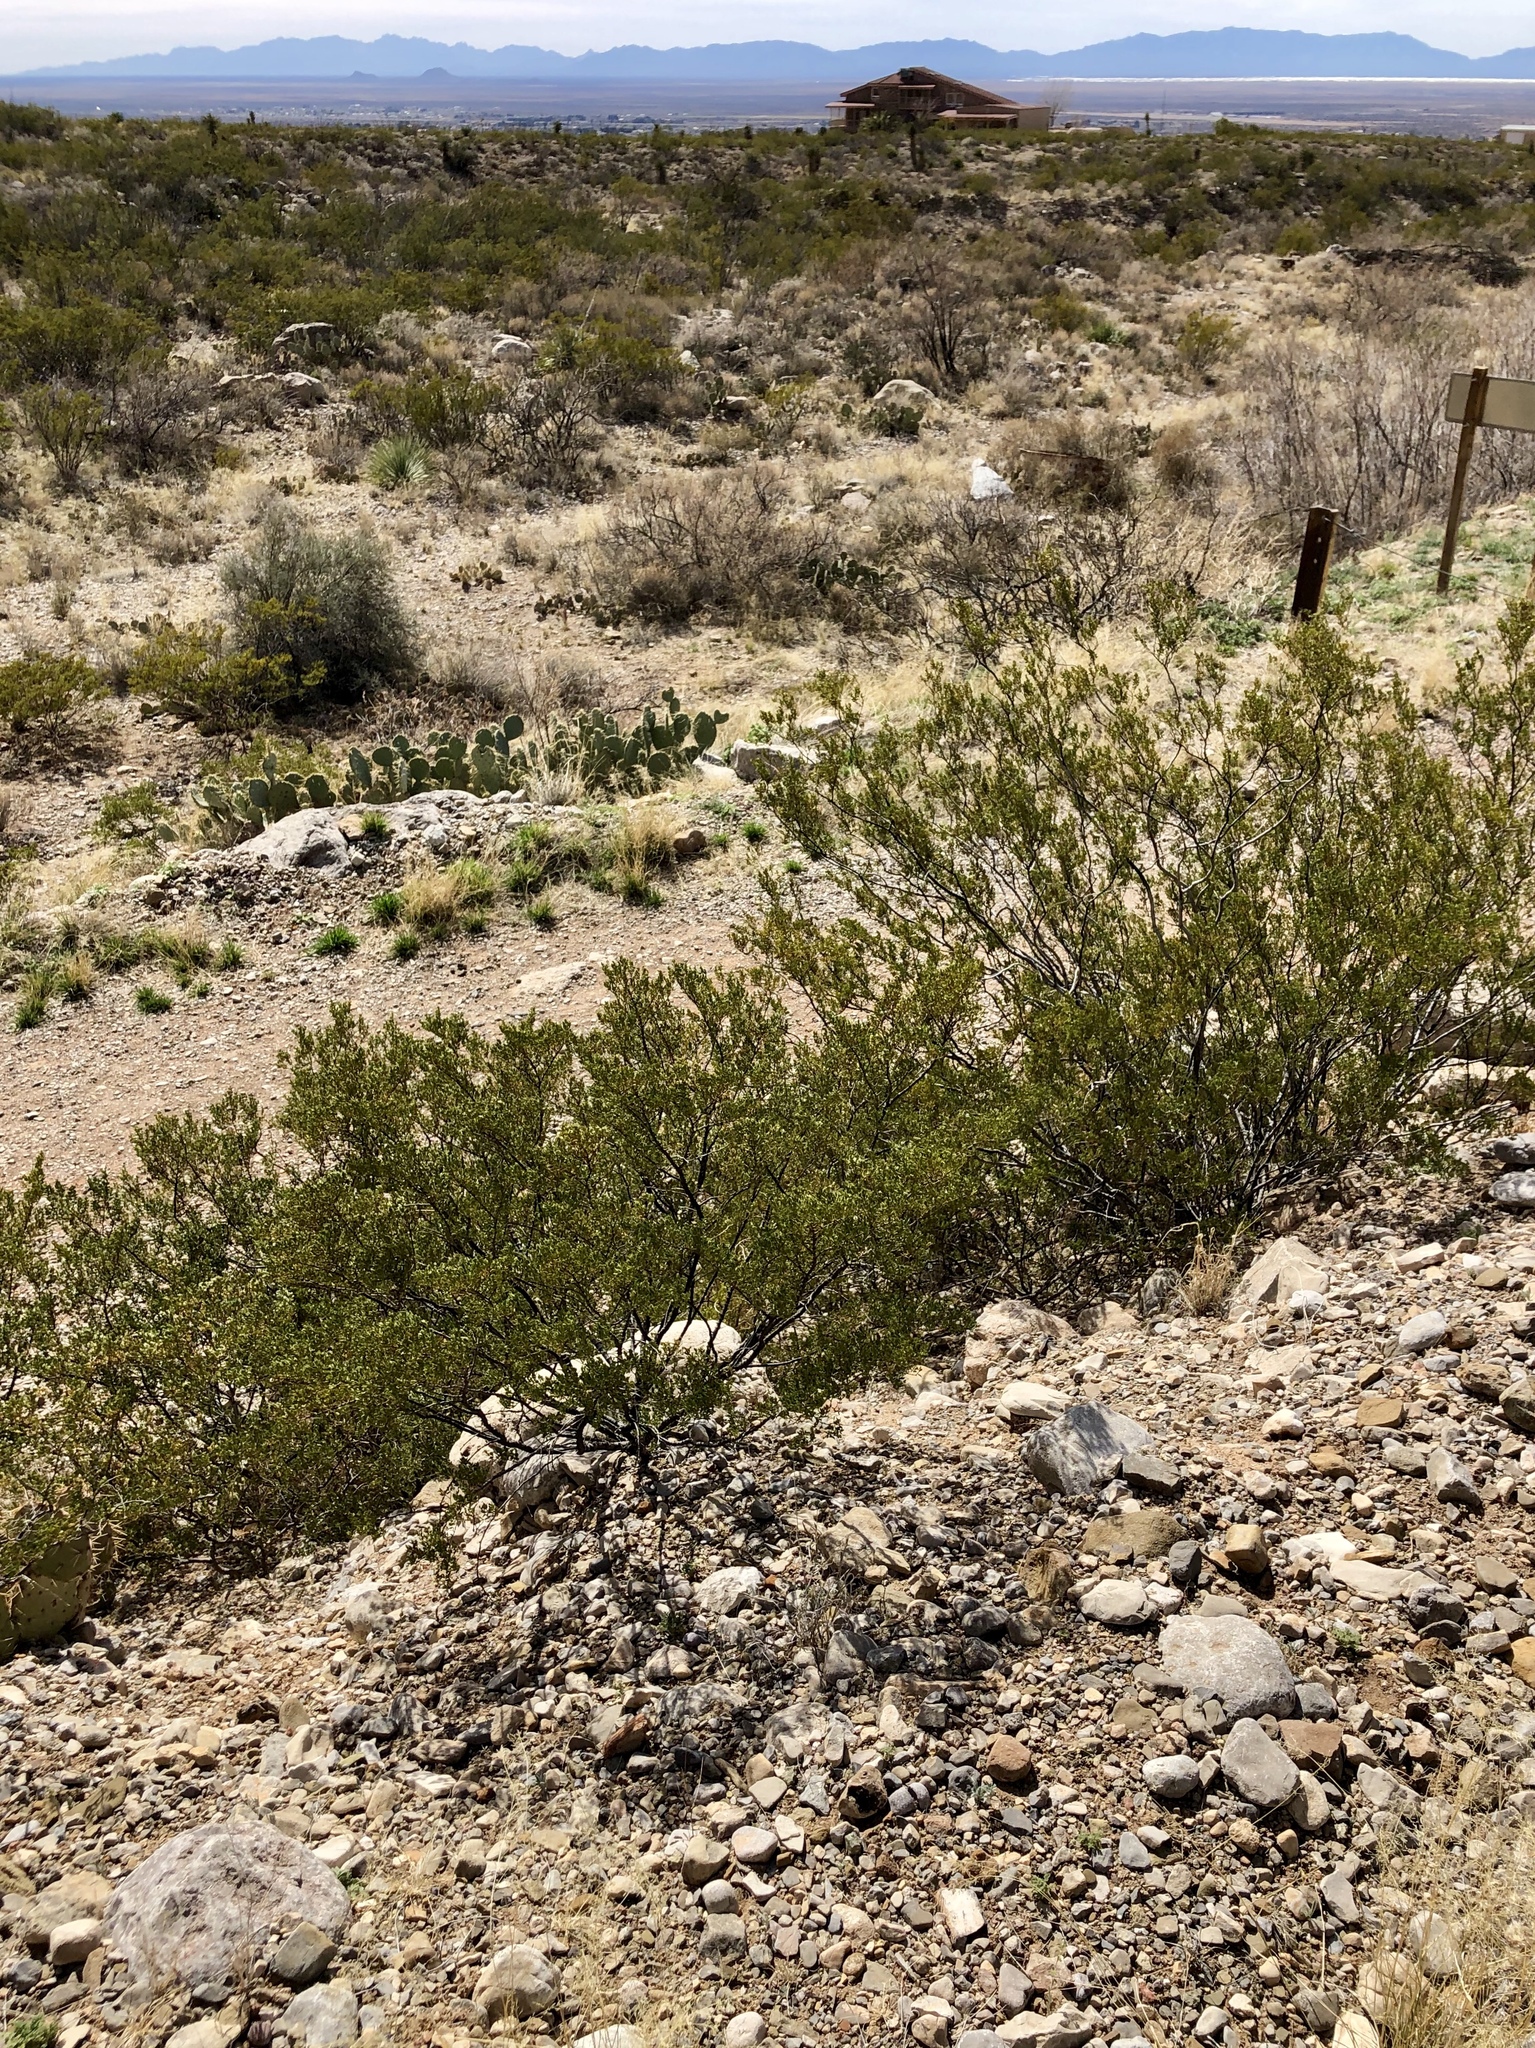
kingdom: Plantae
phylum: Tracheophyta
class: Magnoliopsida
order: Zygophyllales
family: Zygophyllaceae
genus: Larrea
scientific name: Larrea tridentata
